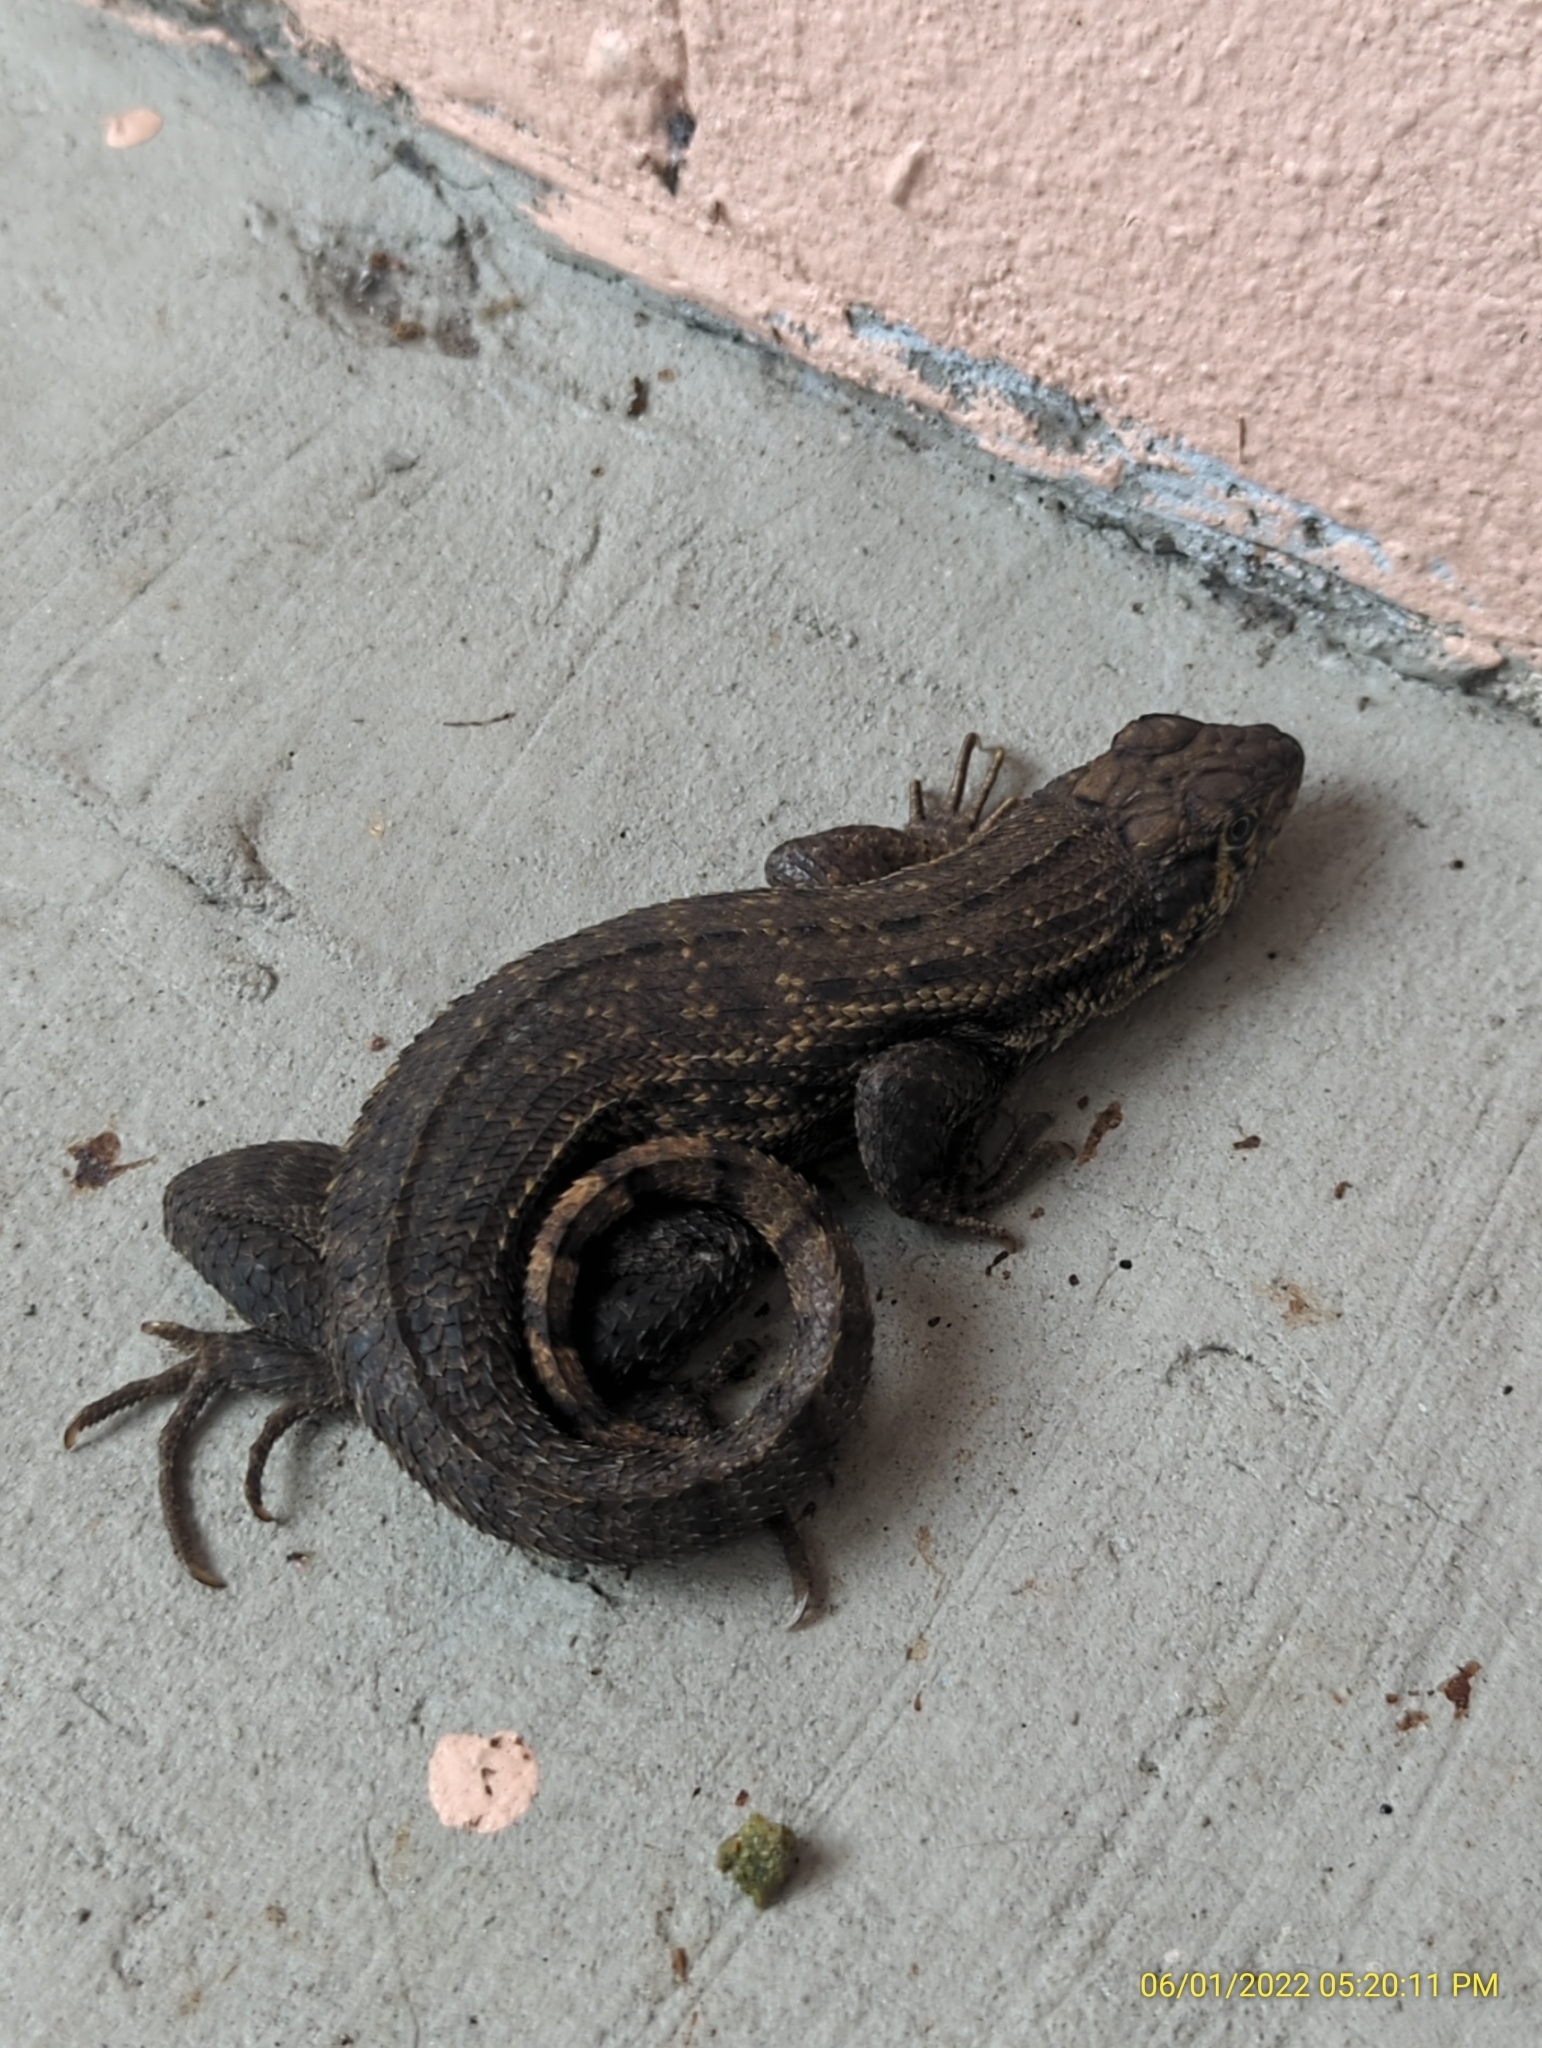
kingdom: Animalia
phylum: Chordata
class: Squamata
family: Leiocephalidae
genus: Leiocephalus
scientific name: Leiocephalus carinatus
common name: Northern curly-tailed lizard
